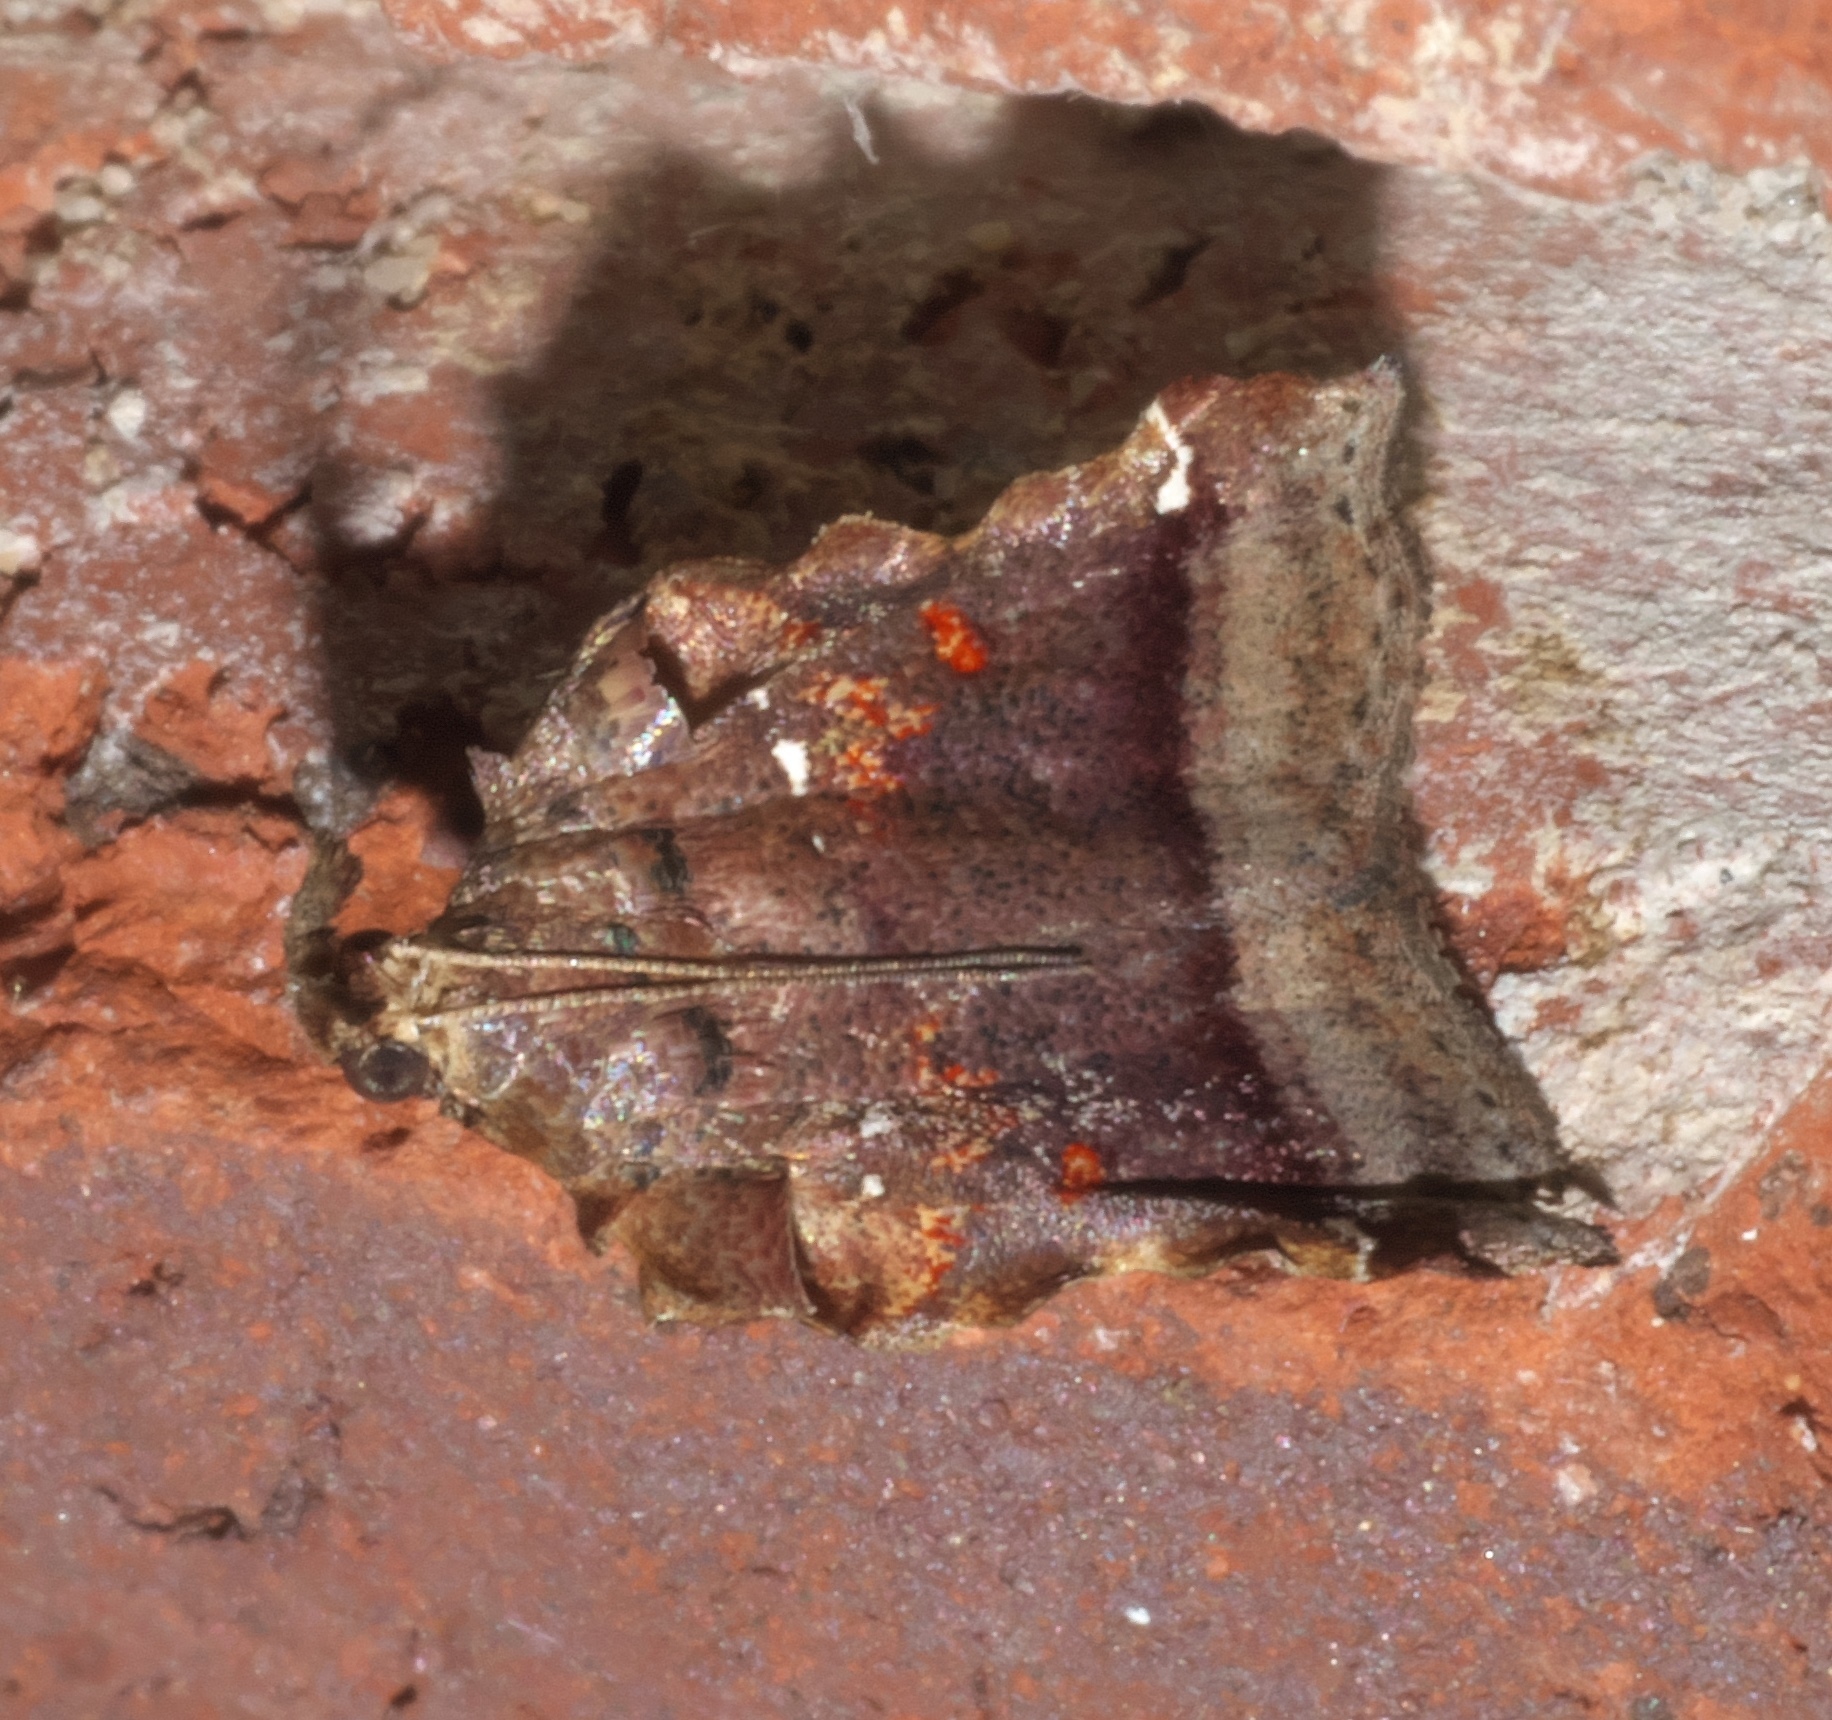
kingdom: Animalia
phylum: Arthropoda
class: Insecta
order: Lepidoptera
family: Pyralidae
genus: Clydonopteron
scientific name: Clydonopteron sacculana
